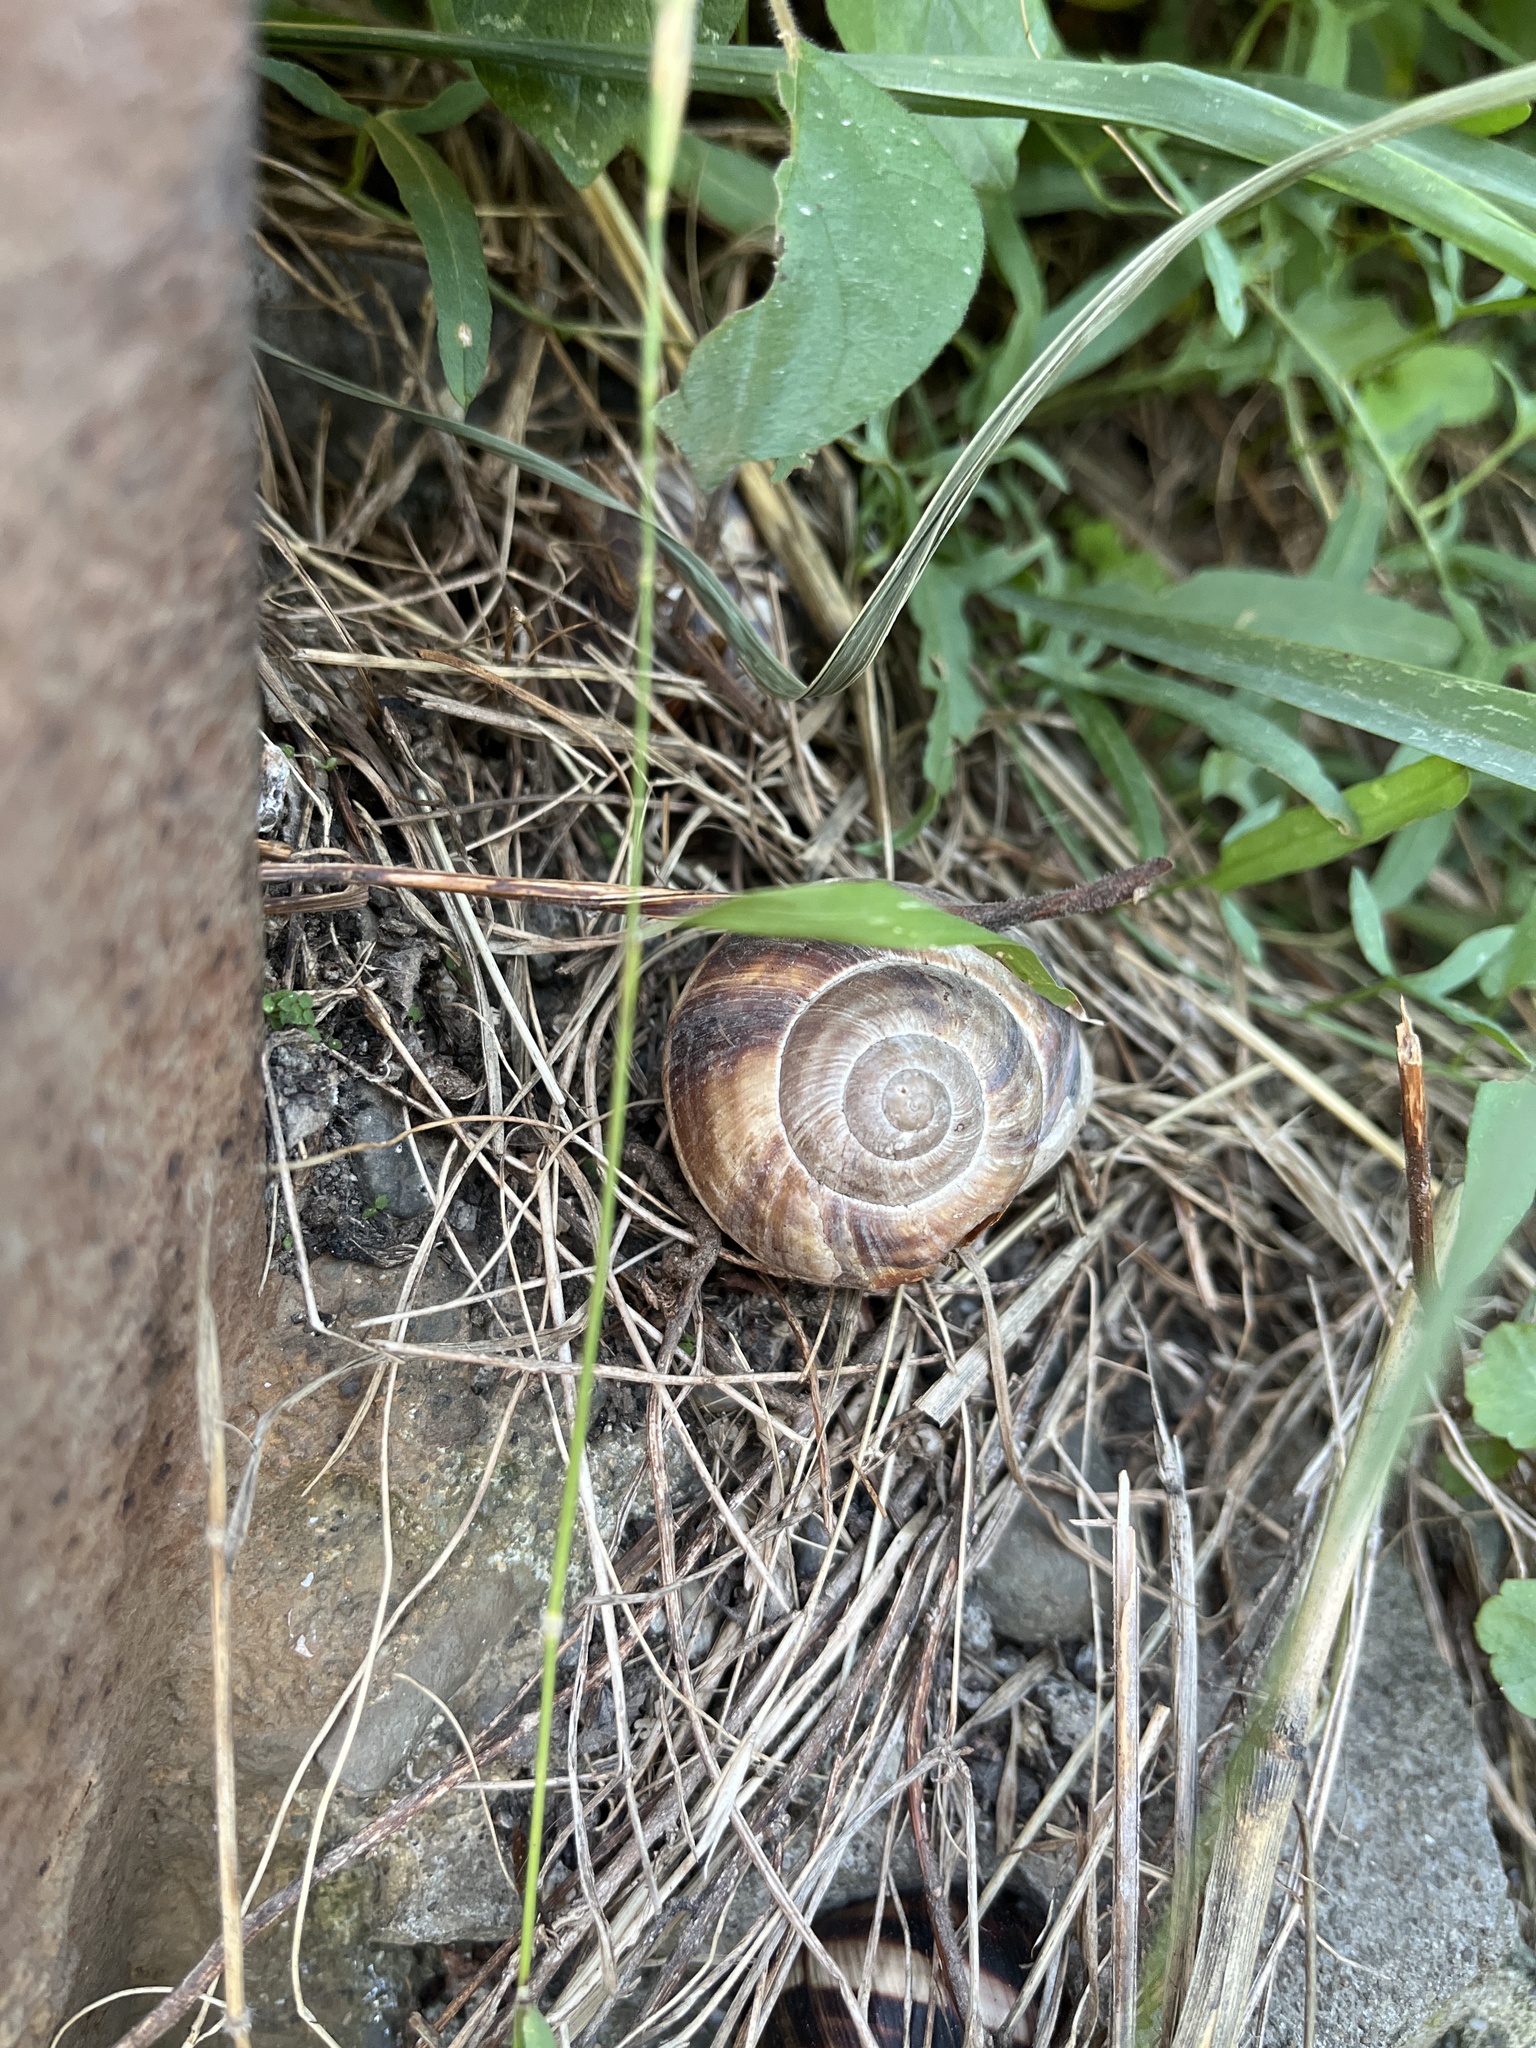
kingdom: Animalia
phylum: Mollusca
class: Gastropoda
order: Stylommatophora
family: Helicidae
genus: Helix
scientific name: Helix lucorum
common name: Turkish snail
